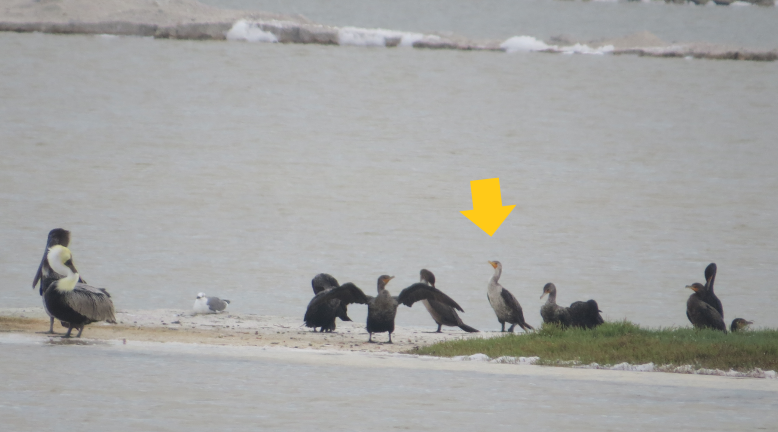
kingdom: Animalia
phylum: Chordata
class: Aves
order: Suliformes
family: Phalacrocoracidae
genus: Phalacrocorax
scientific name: Phalacrocorax auritus
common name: Double-crested cormorant
